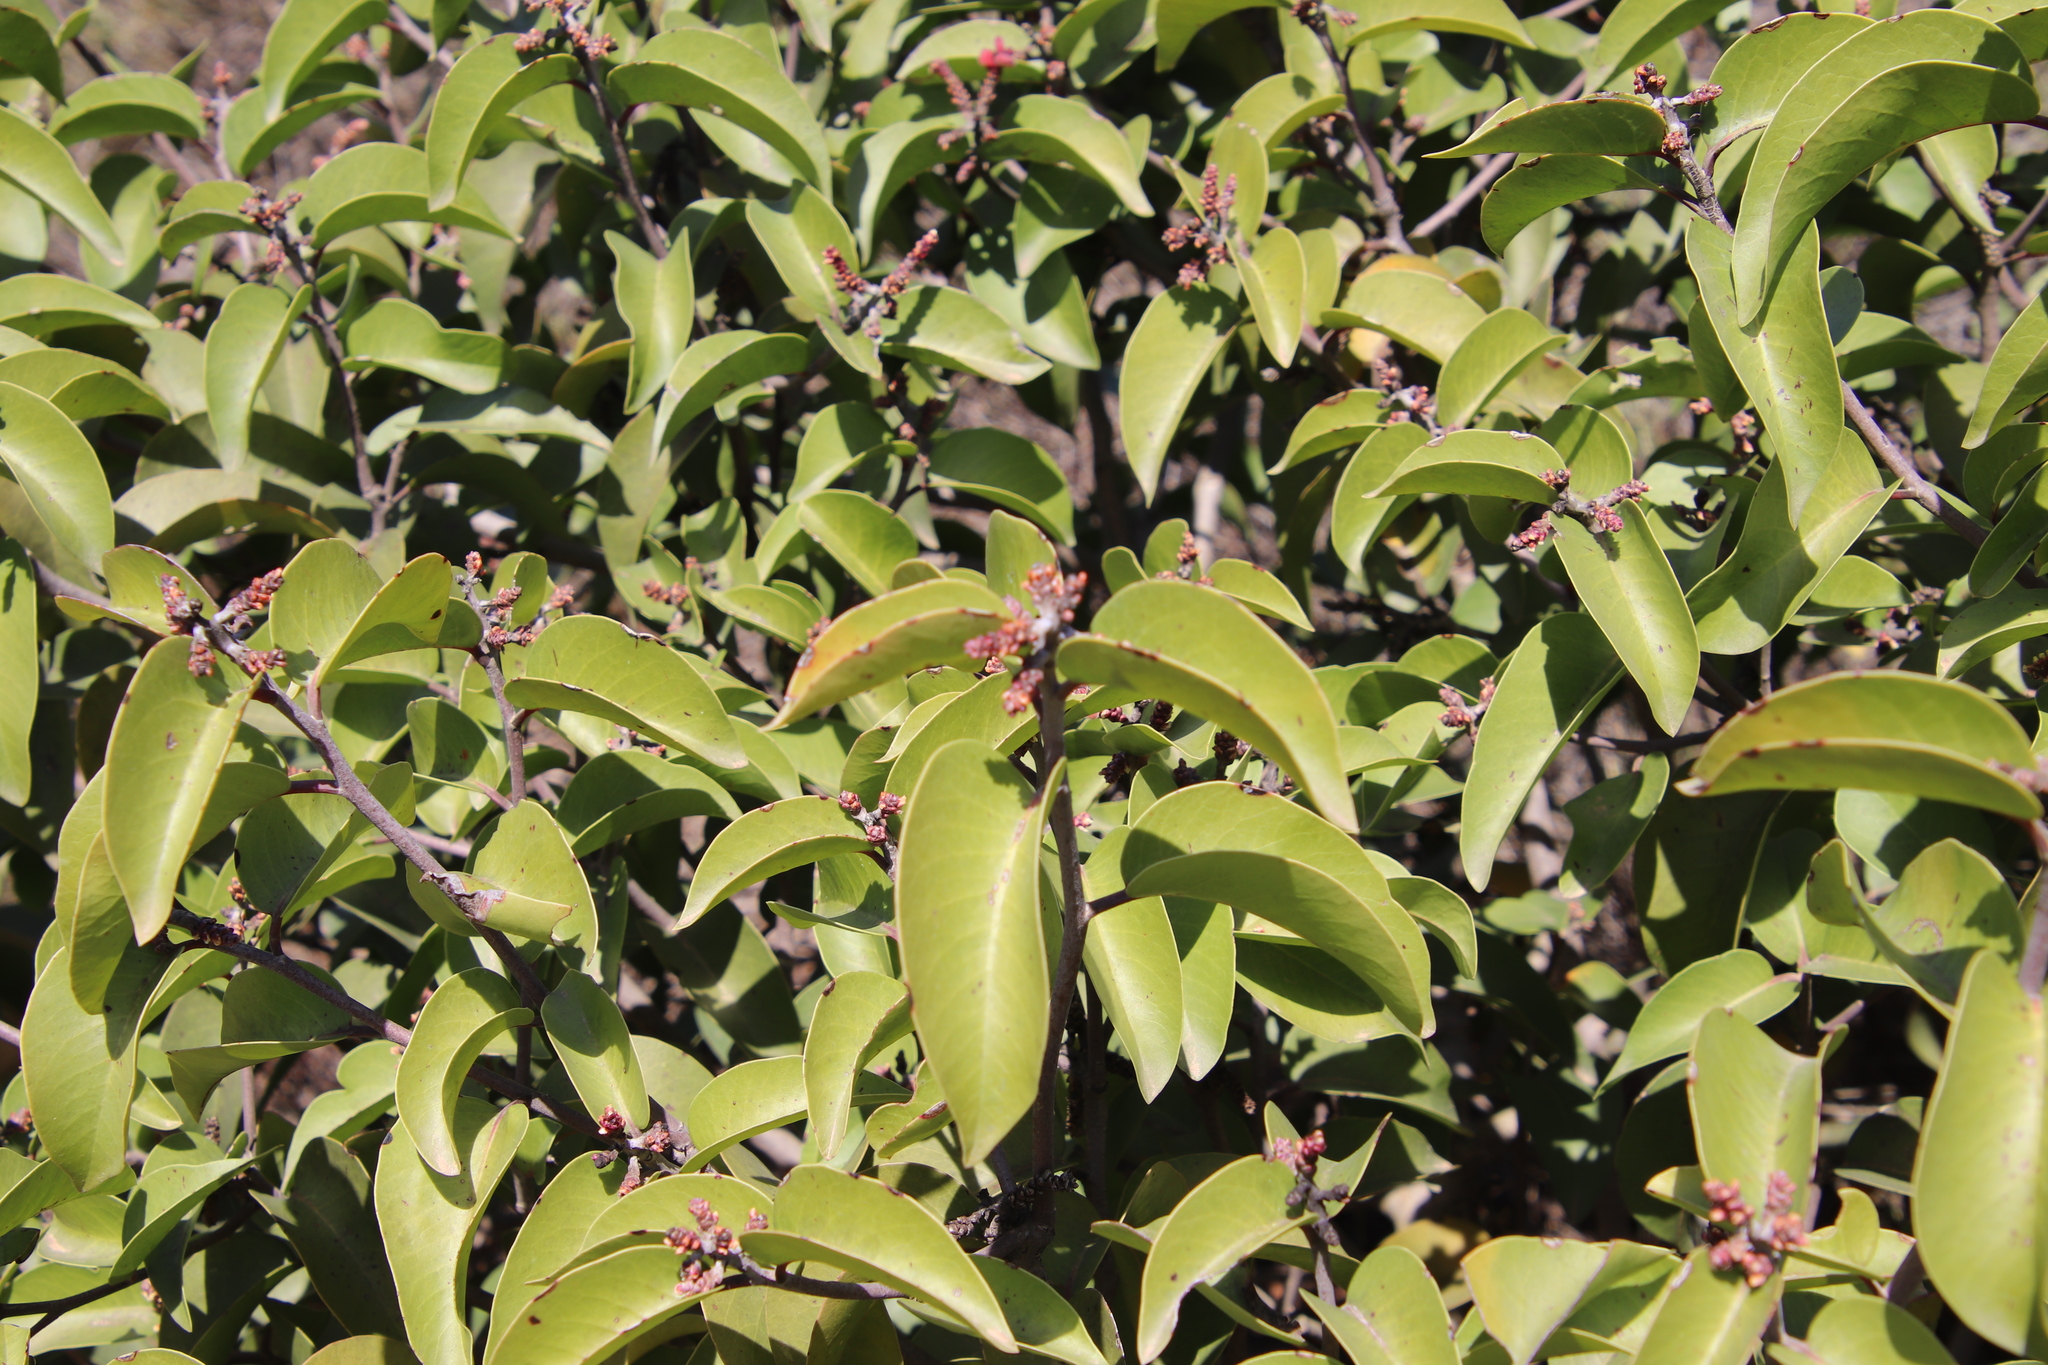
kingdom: Plantae
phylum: Tracheophyta
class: Magnoliopsida
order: Sapindales
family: Anacardiaceae
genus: Rhus
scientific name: Rhus ovata
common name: Sugar sumac
